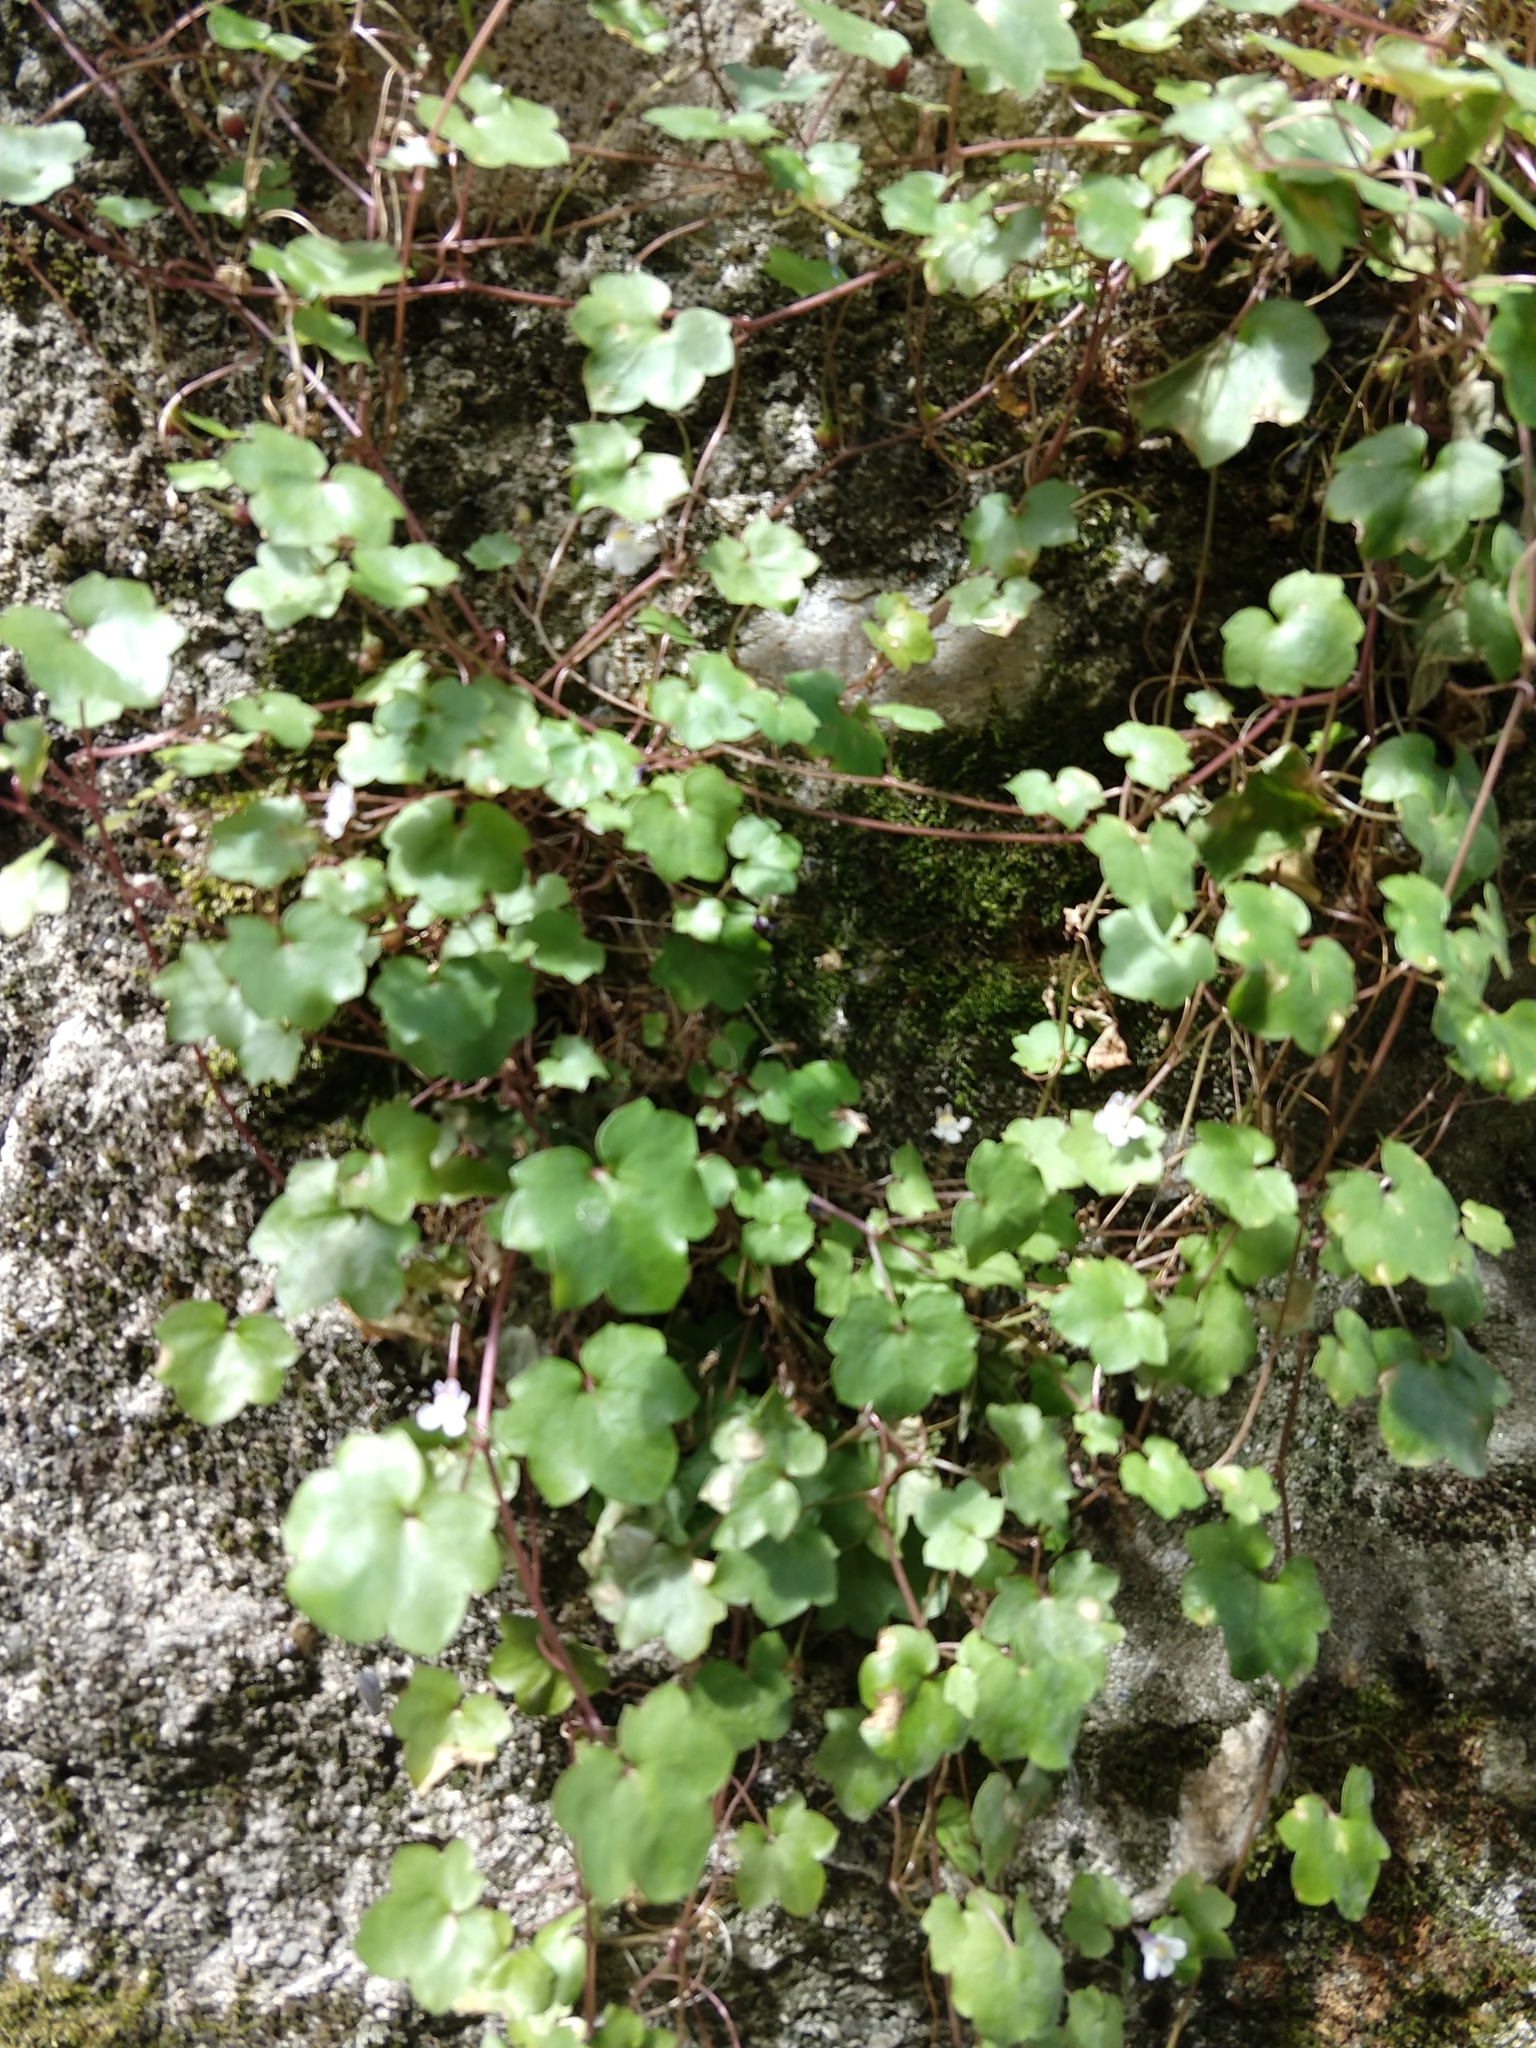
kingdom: Plantae
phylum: Tracheophyta
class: Magnoliopsida
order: Lamiales
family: Plantaginaceae
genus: Cymbalaria
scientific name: Cymbalaria muralis
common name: Ivy-leaved toadflax
